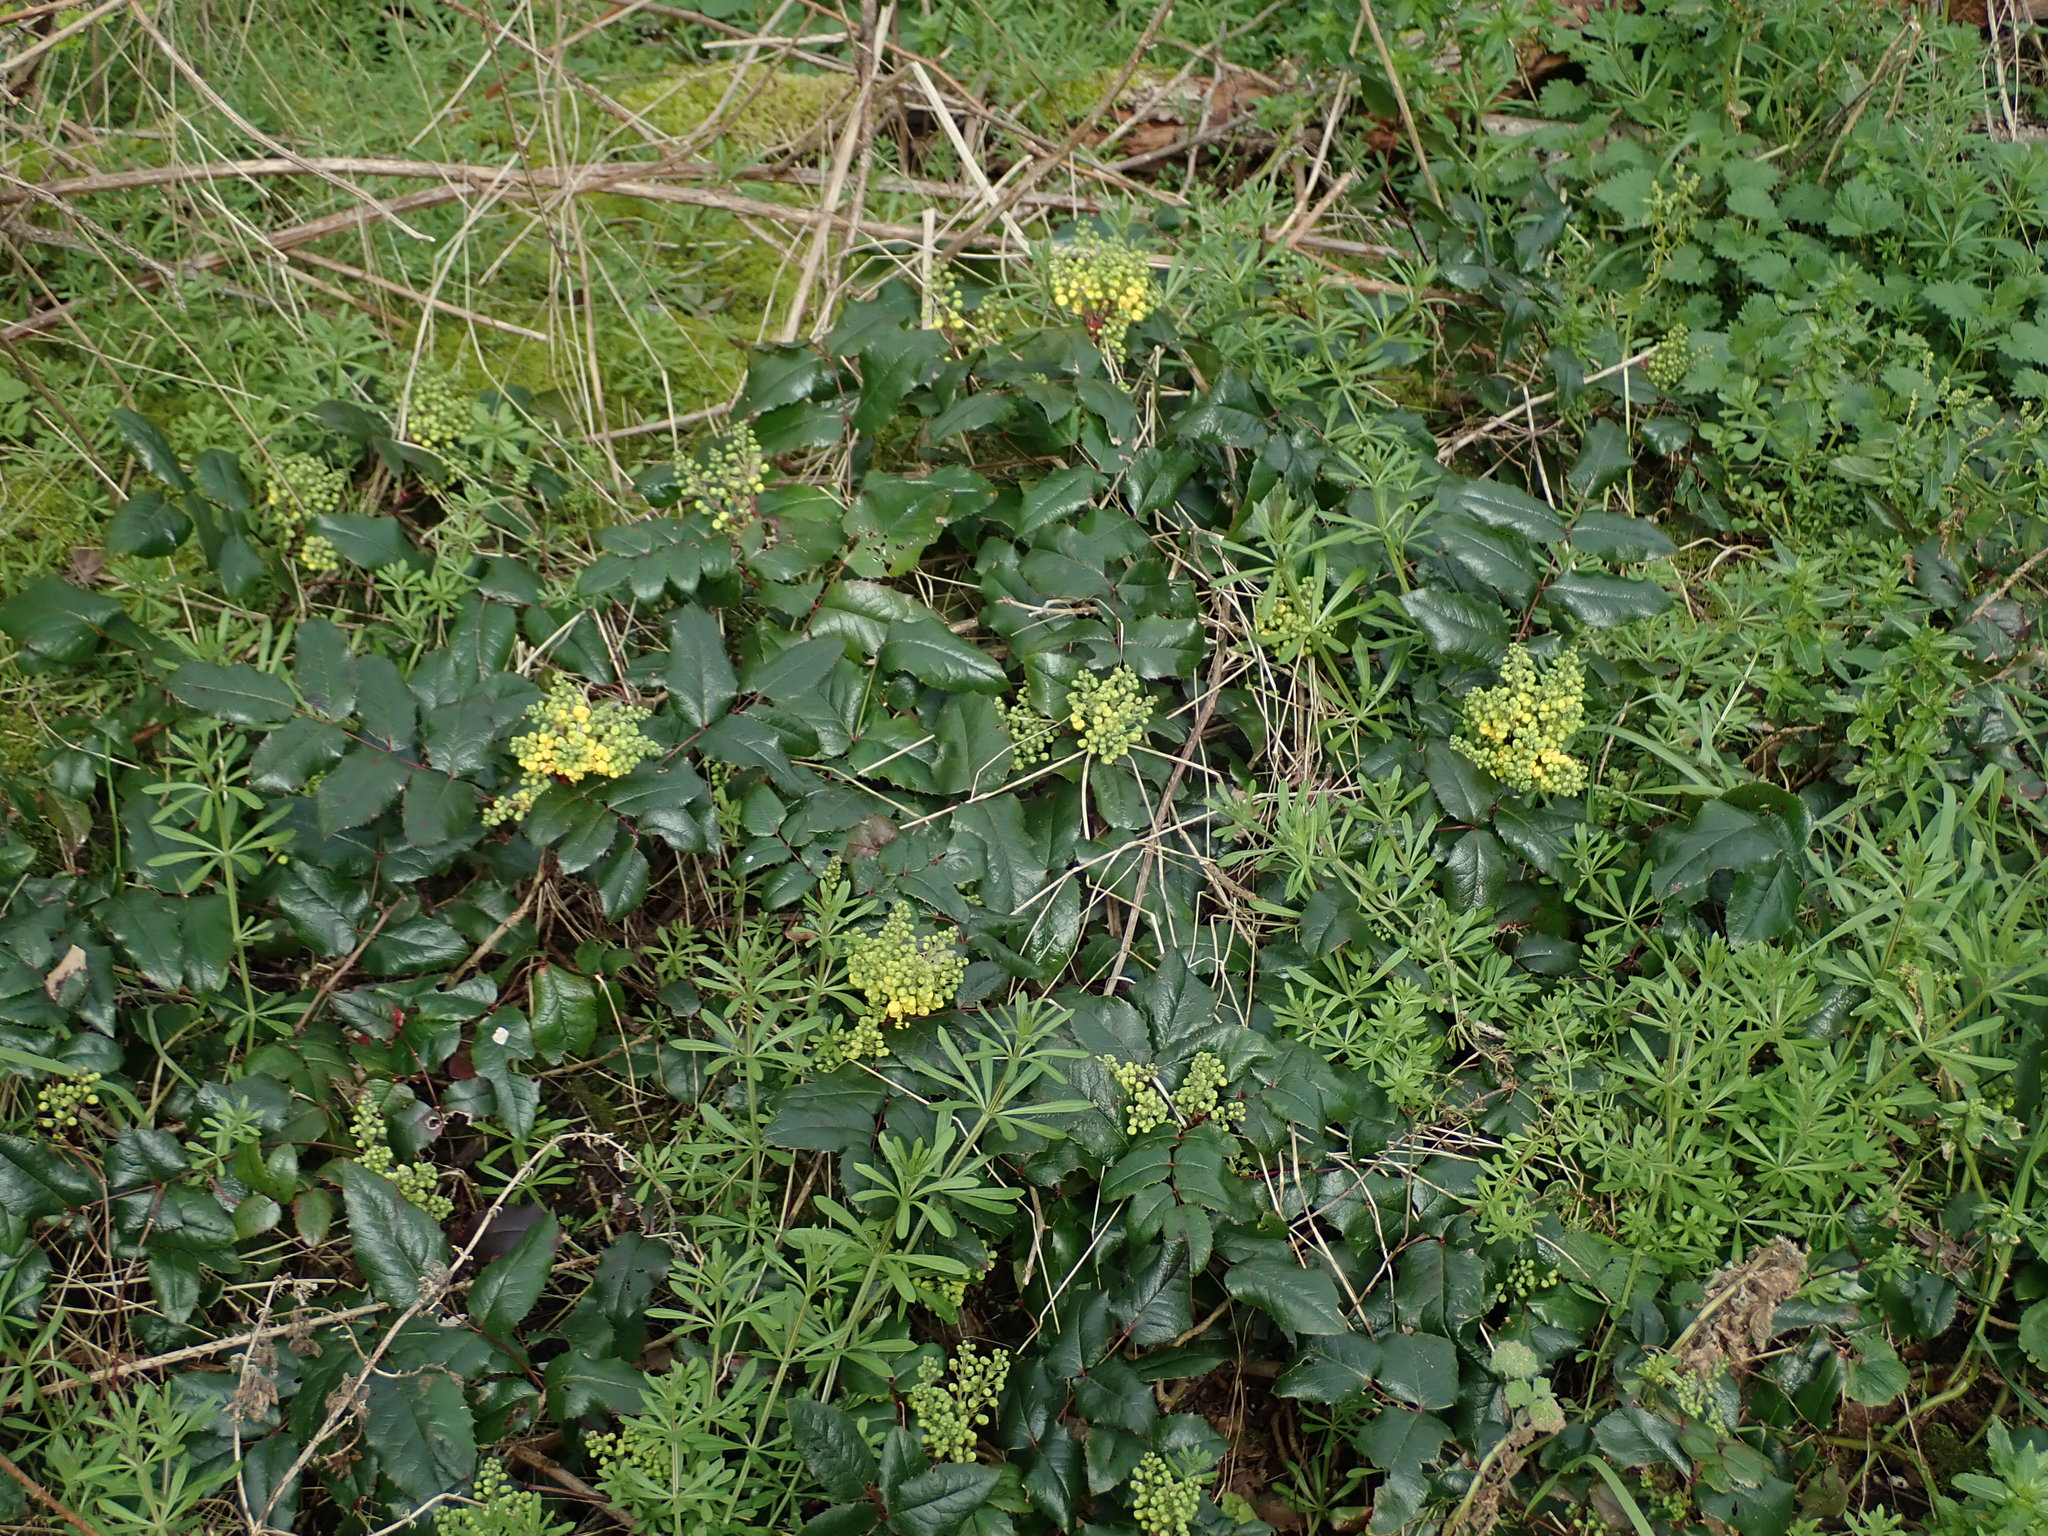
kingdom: Plantae
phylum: Tracheophyta
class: Magnoliopsida
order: Ranunculales
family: Berberidaceae
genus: Mahonia
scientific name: Mahonia aquifolium
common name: Oregon-grape
